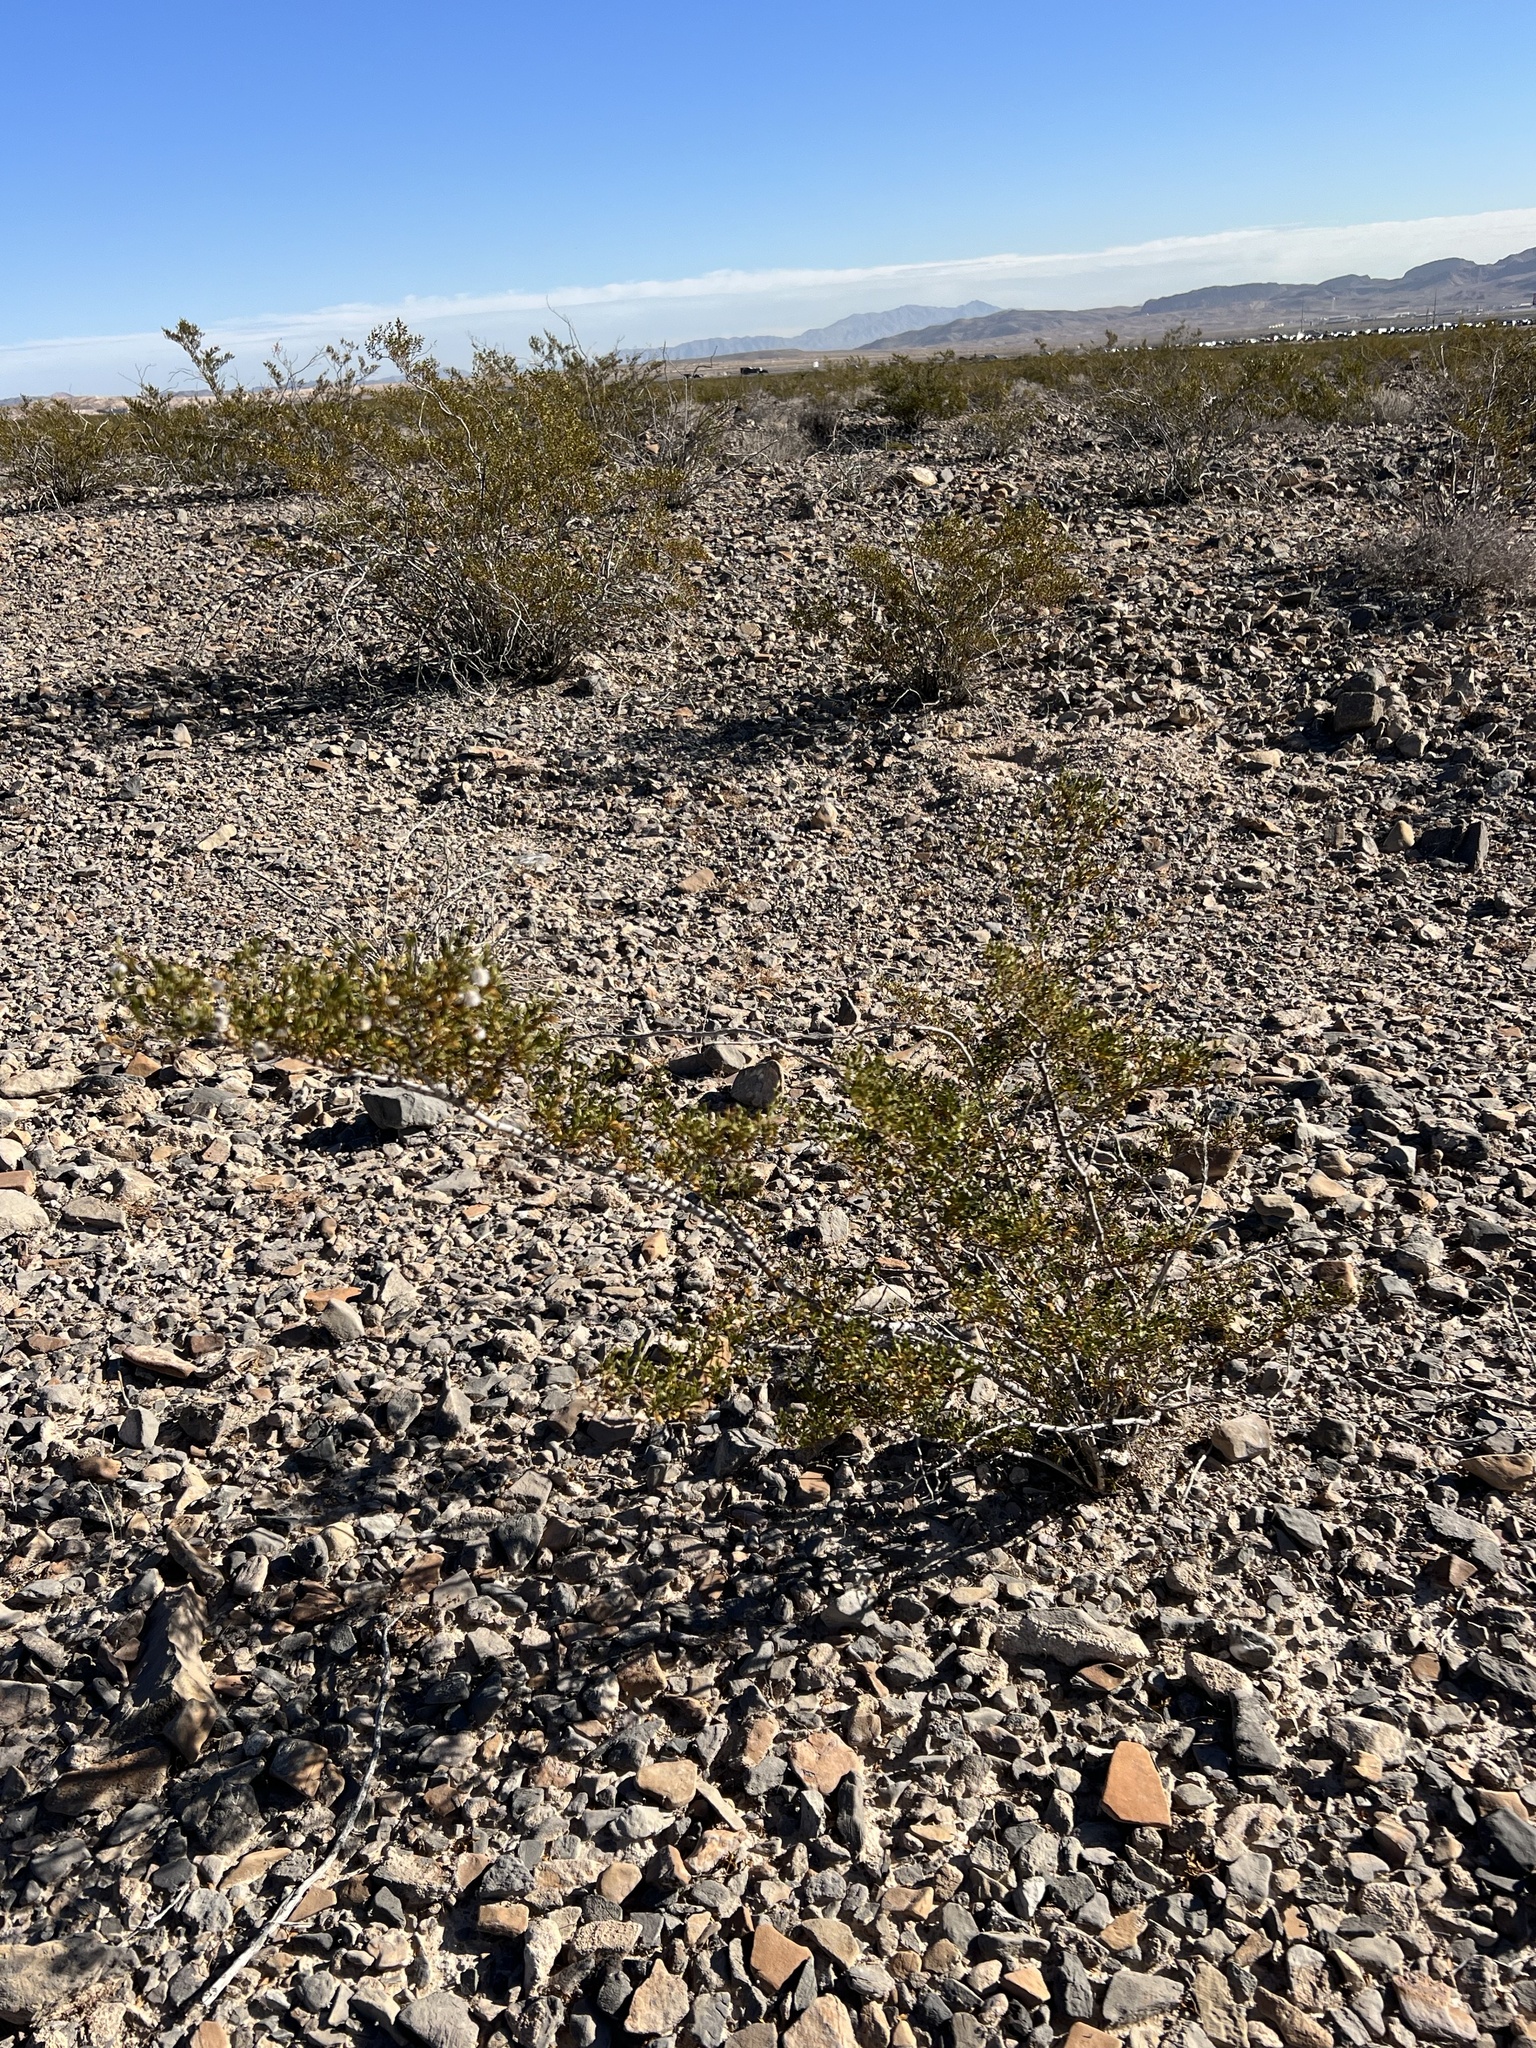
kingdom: Plantae
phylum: Tracheophyta
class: Magnoliopsida
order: Zygophyllales
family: Zygophyllaceae
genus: Larrea
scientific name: Larrea tridentata
